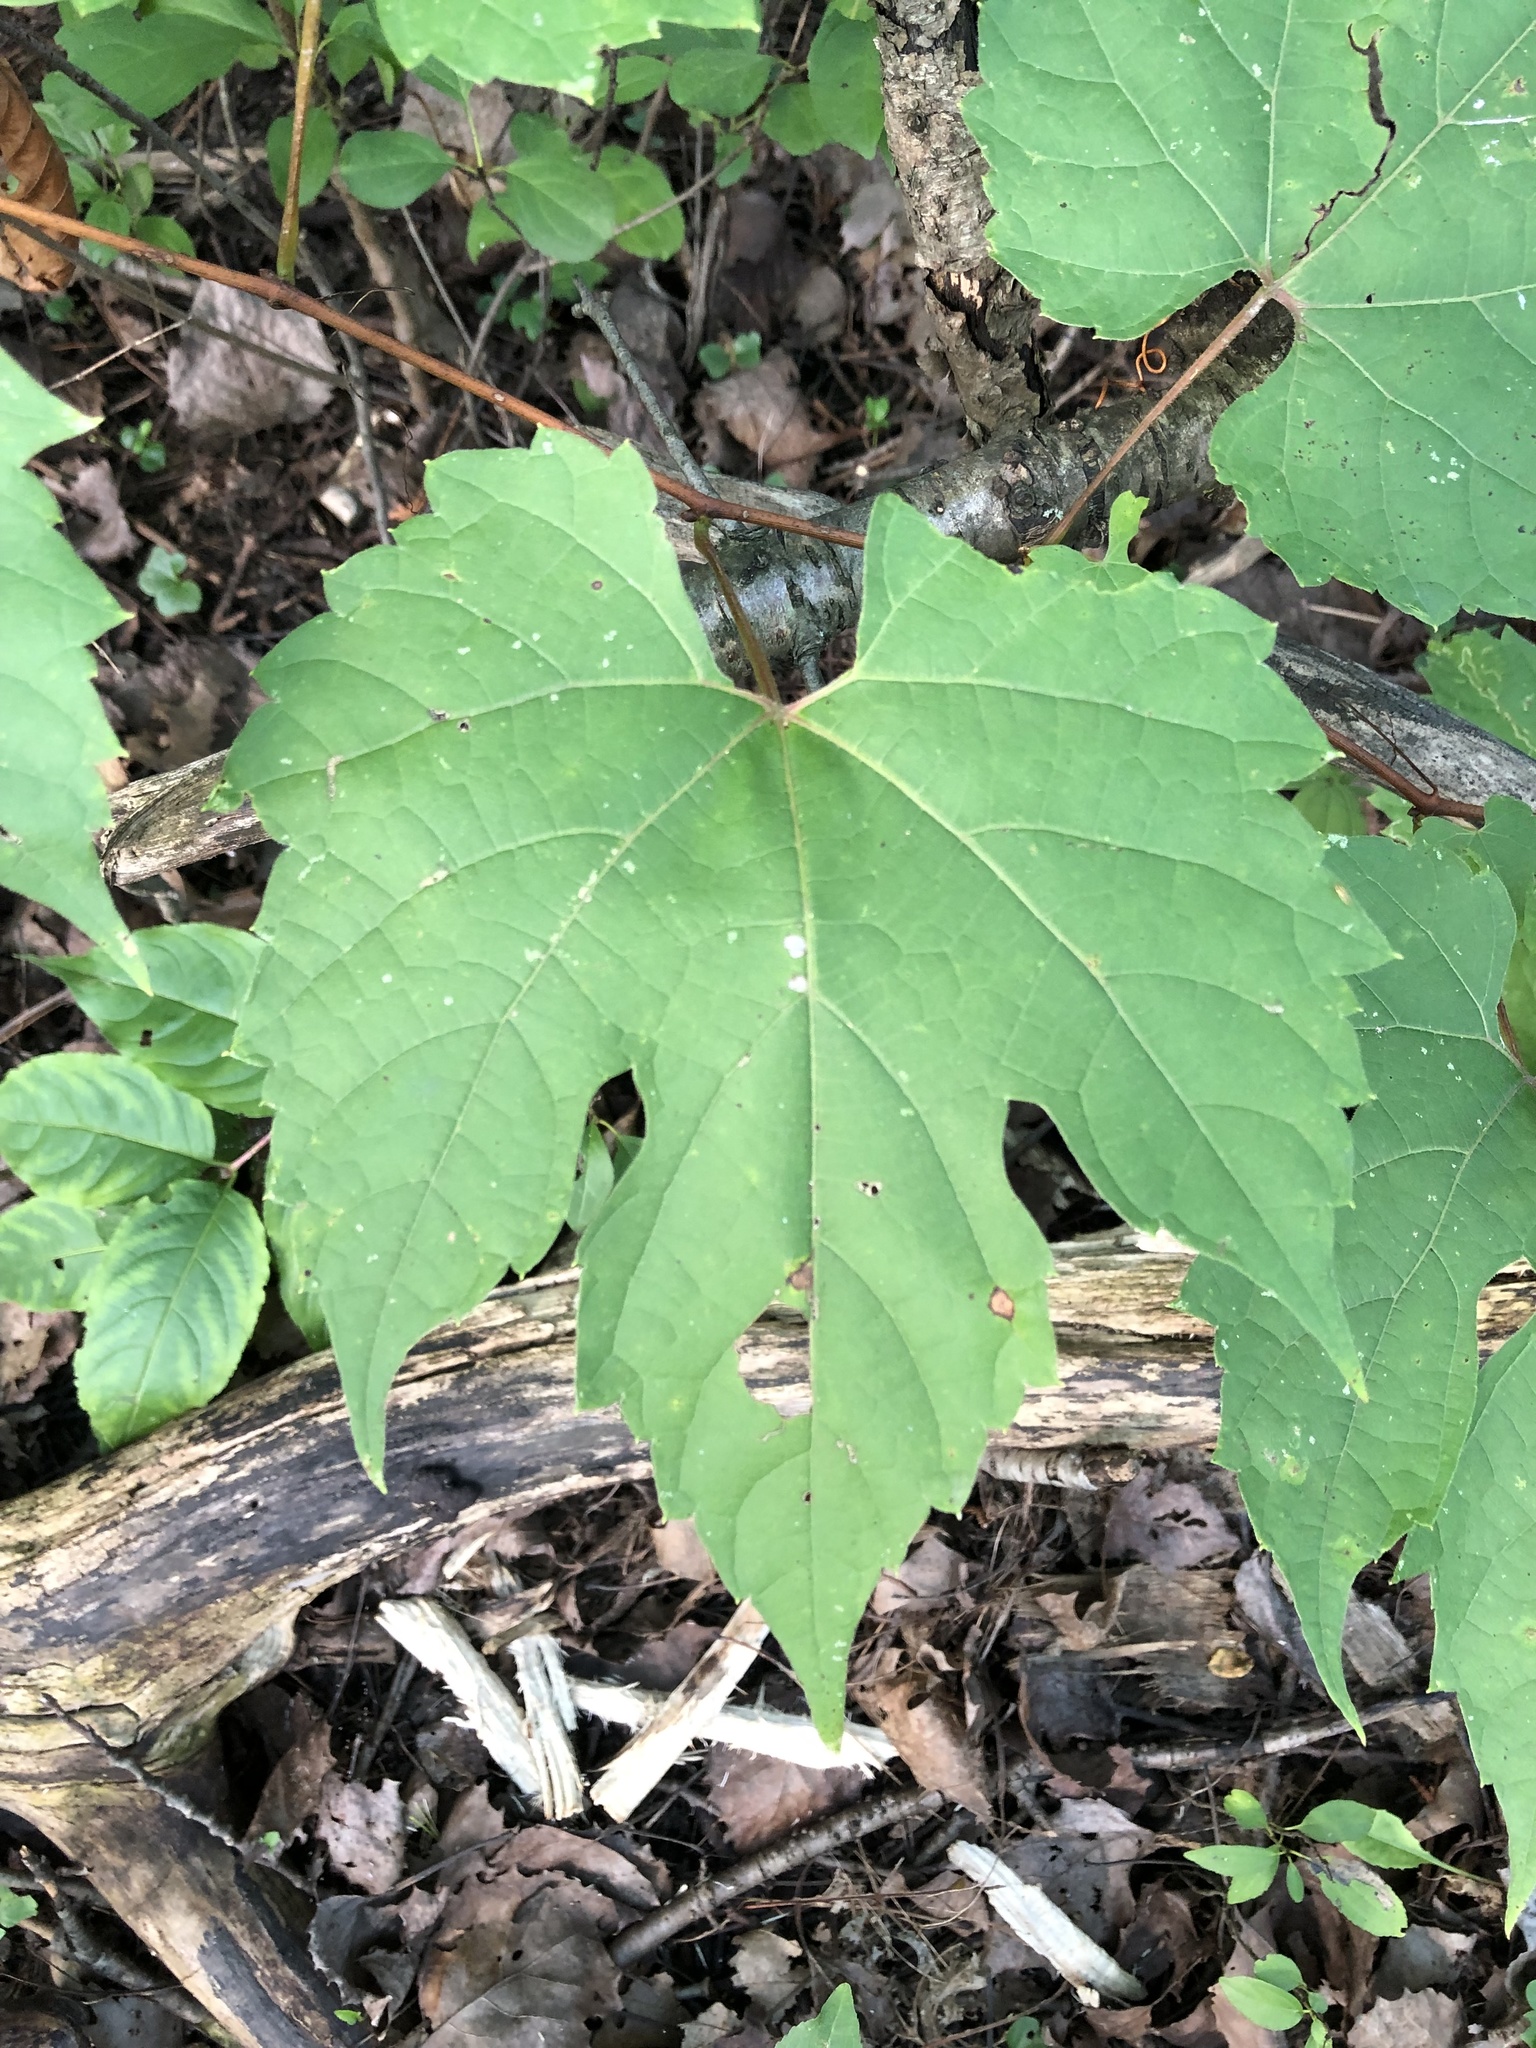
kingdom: Plantae
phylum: Tracheophyta
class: Magnoliopsida
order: Vitales
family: Vitaceae
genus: Vitis
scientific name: Vitis riparia
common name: Frost grape
